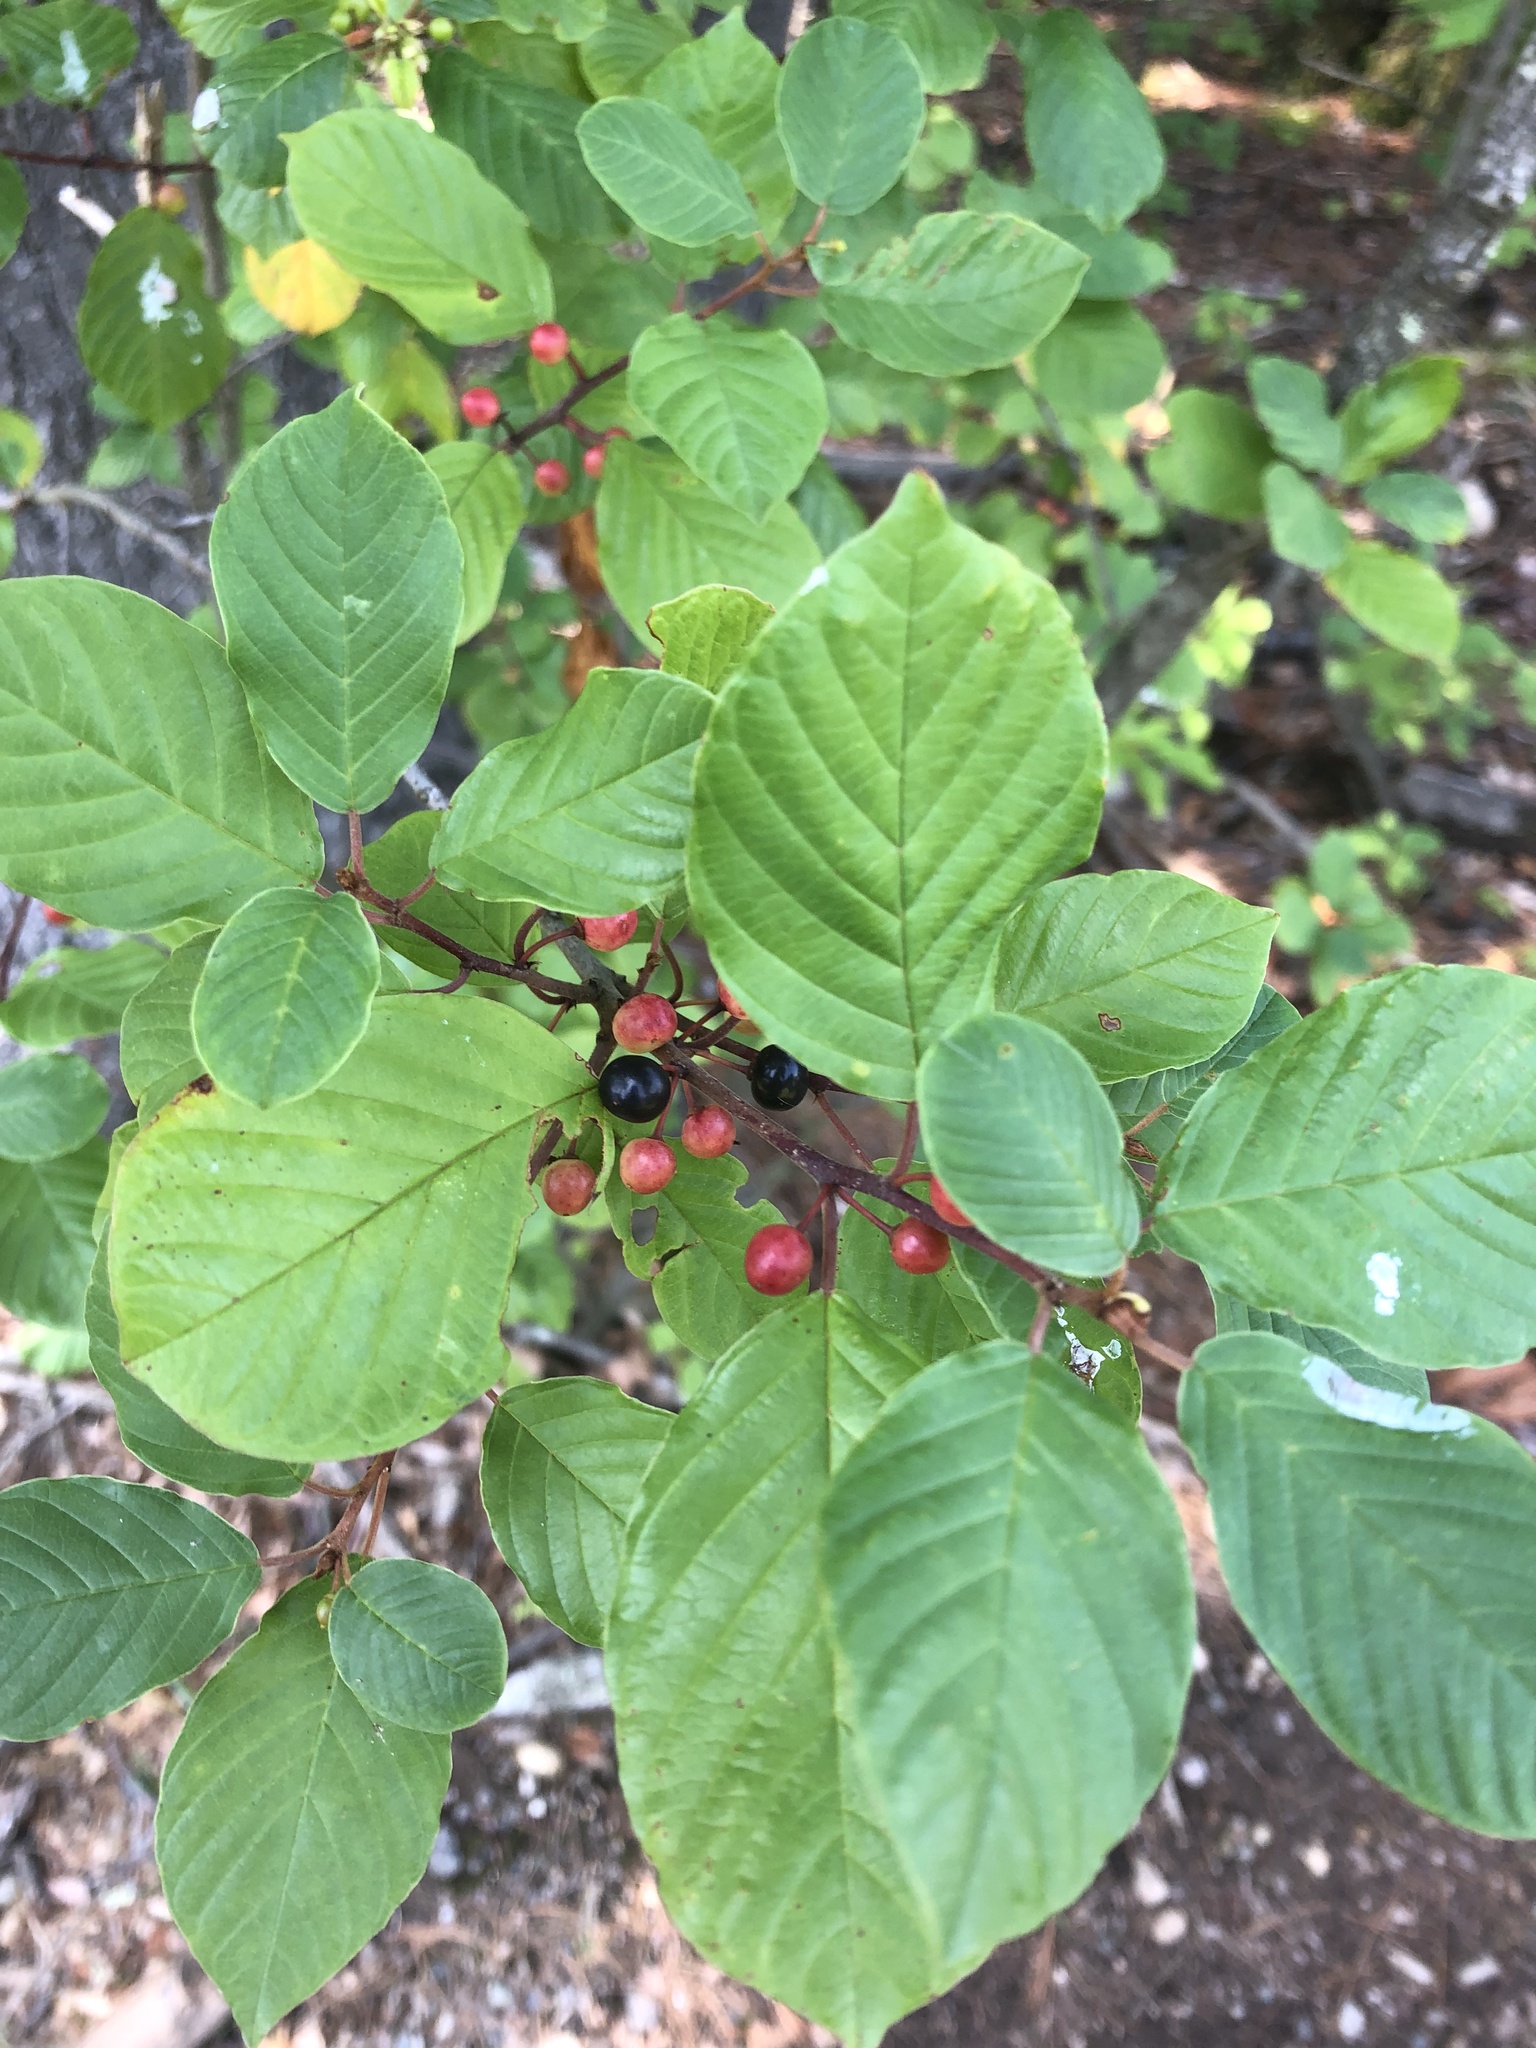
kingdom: Plantae
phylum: Tracheophyta
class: Magnoliopsida
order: Rosales
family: Rhamnaceae
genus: Frangula
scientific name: Frangula alnus
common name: Alder buckthorn
